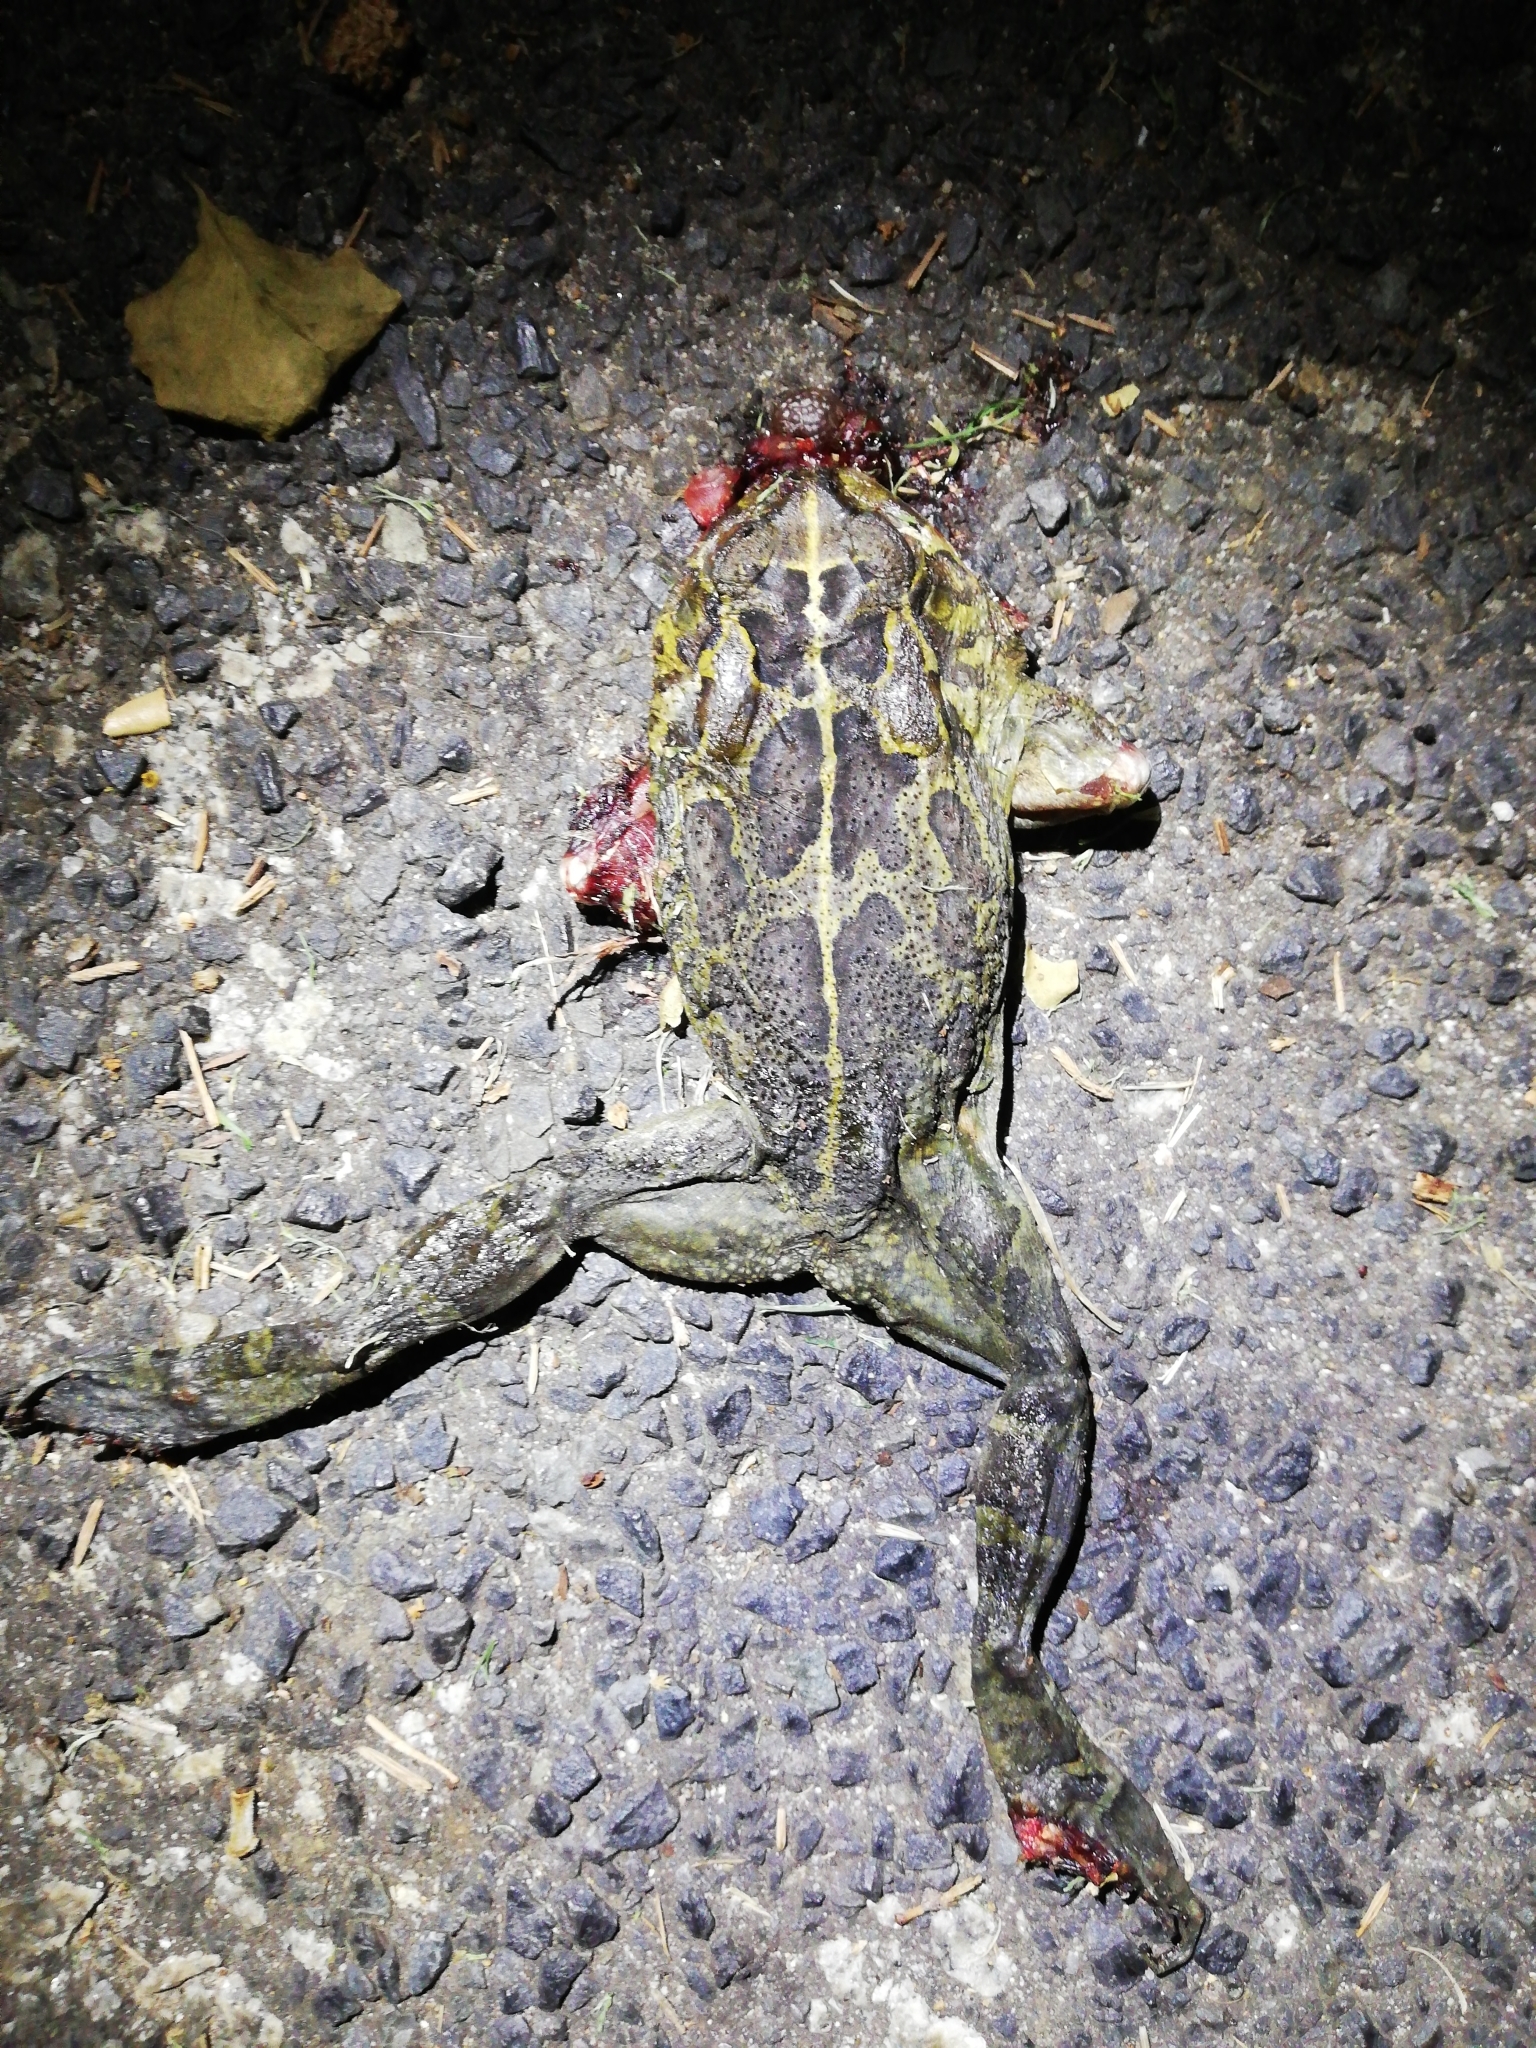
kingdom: Animalia
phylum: Chordata
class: Amphibia
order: Anura
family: Bufonidae
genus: Sclerophrys
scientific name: Sclerophrys pantherina
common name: Panther toad
